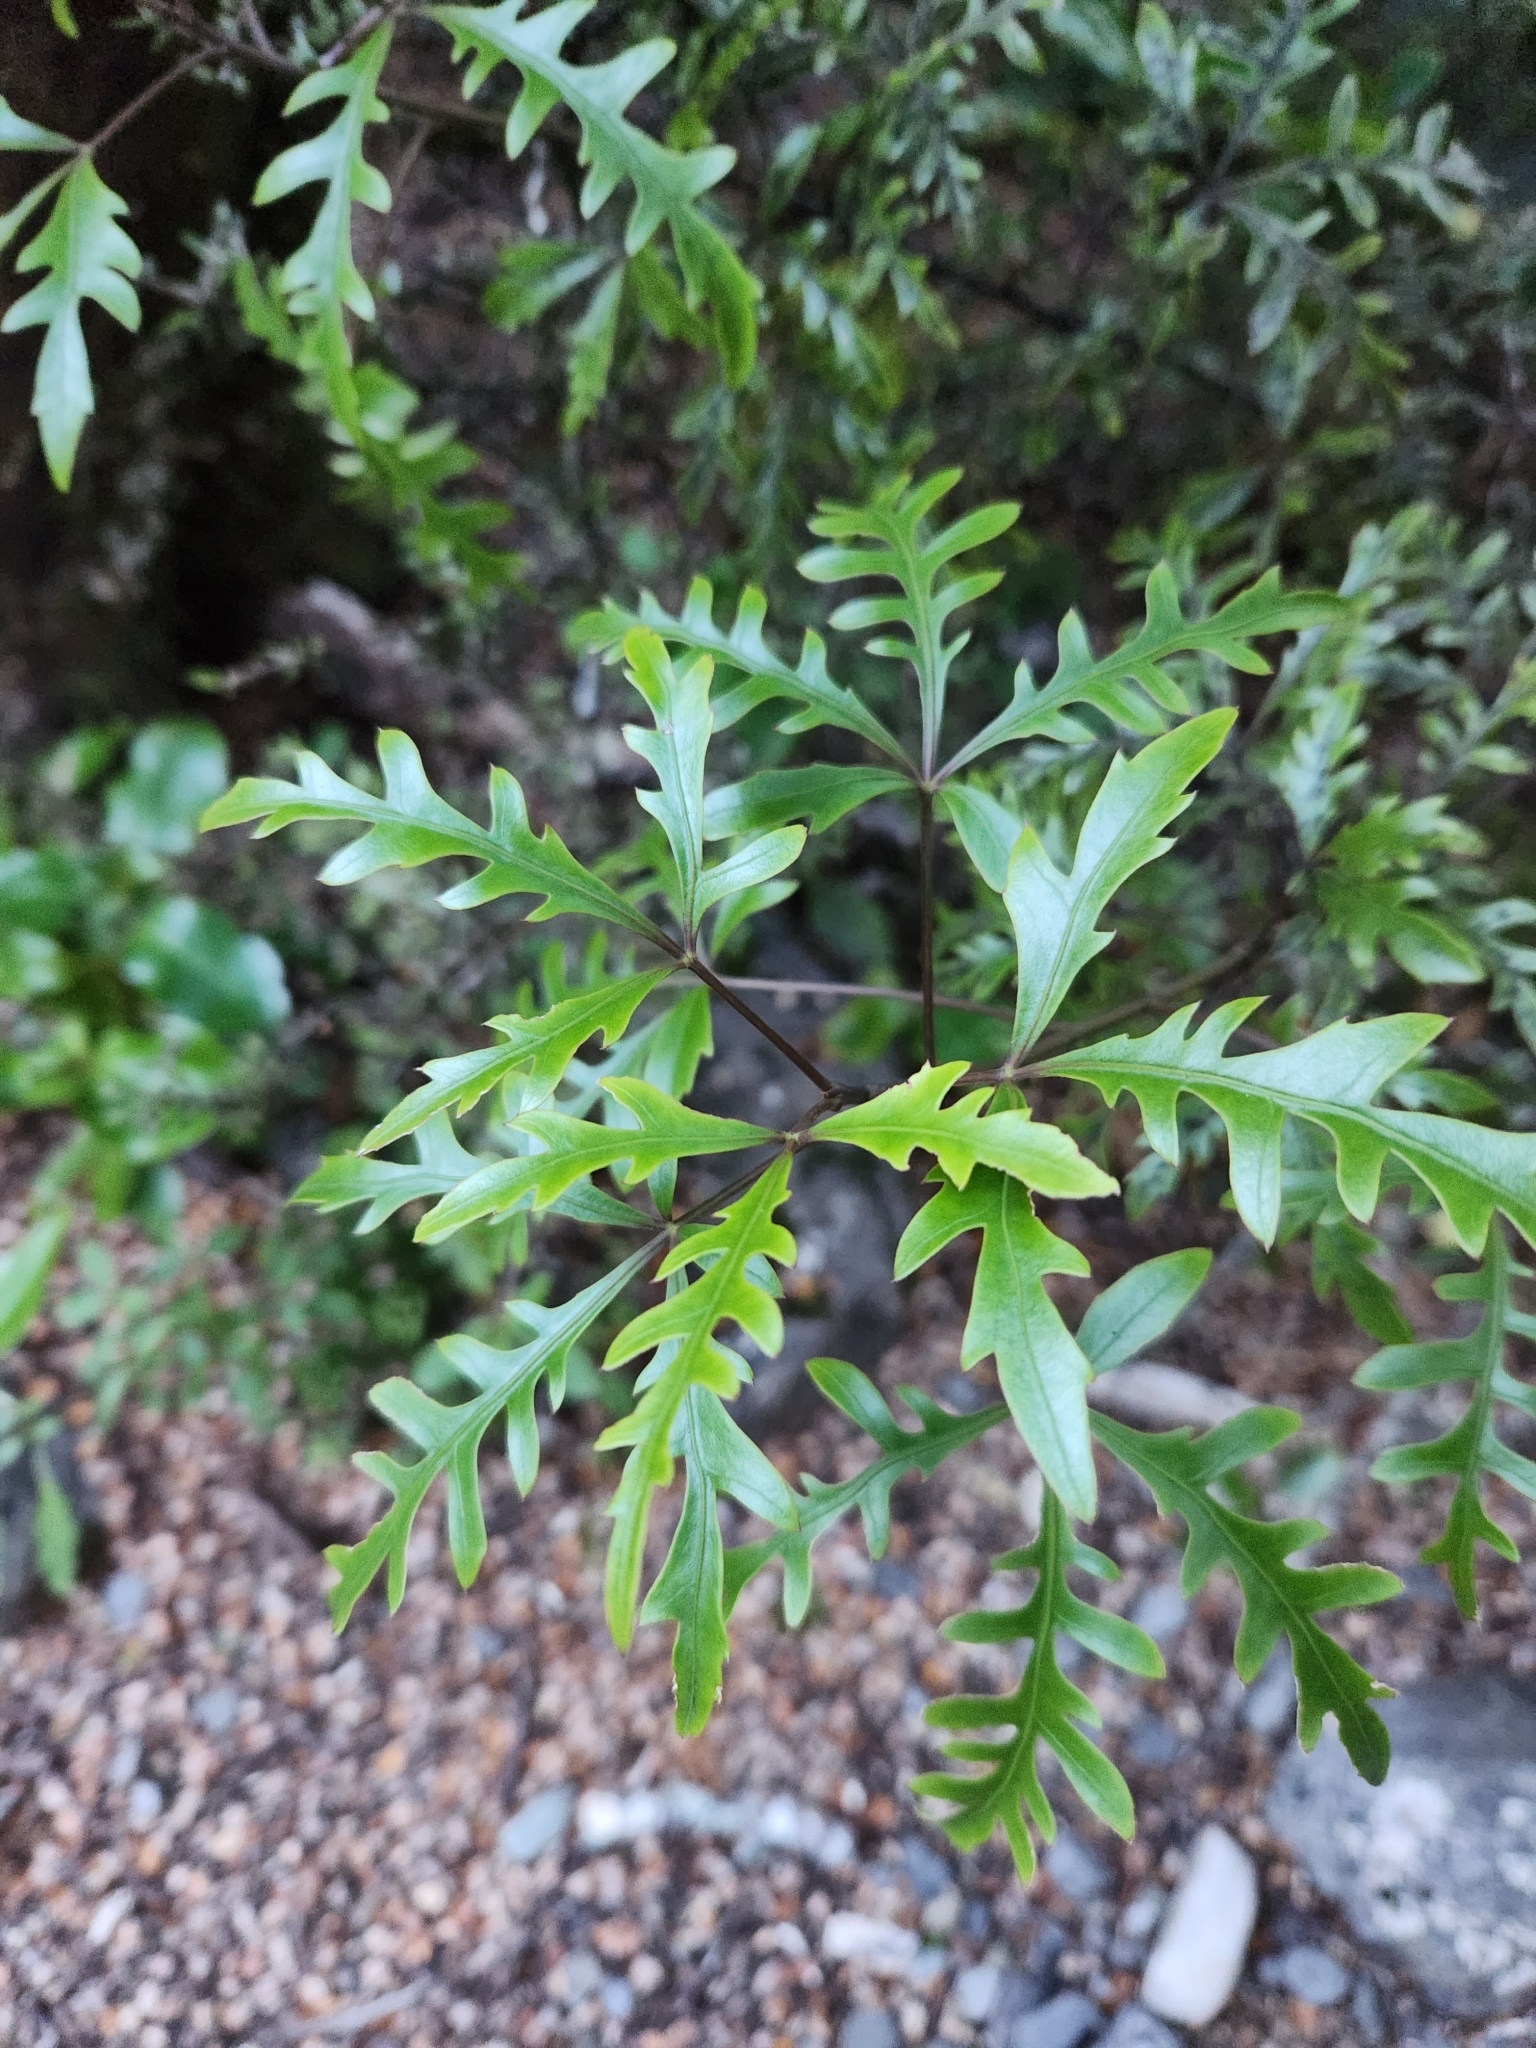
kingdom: Plantae
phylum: Tracheophyta
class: Magnoliopsida
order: Apiales
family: Araliaceae
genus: Raukaua
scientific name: Raukaua simplex
